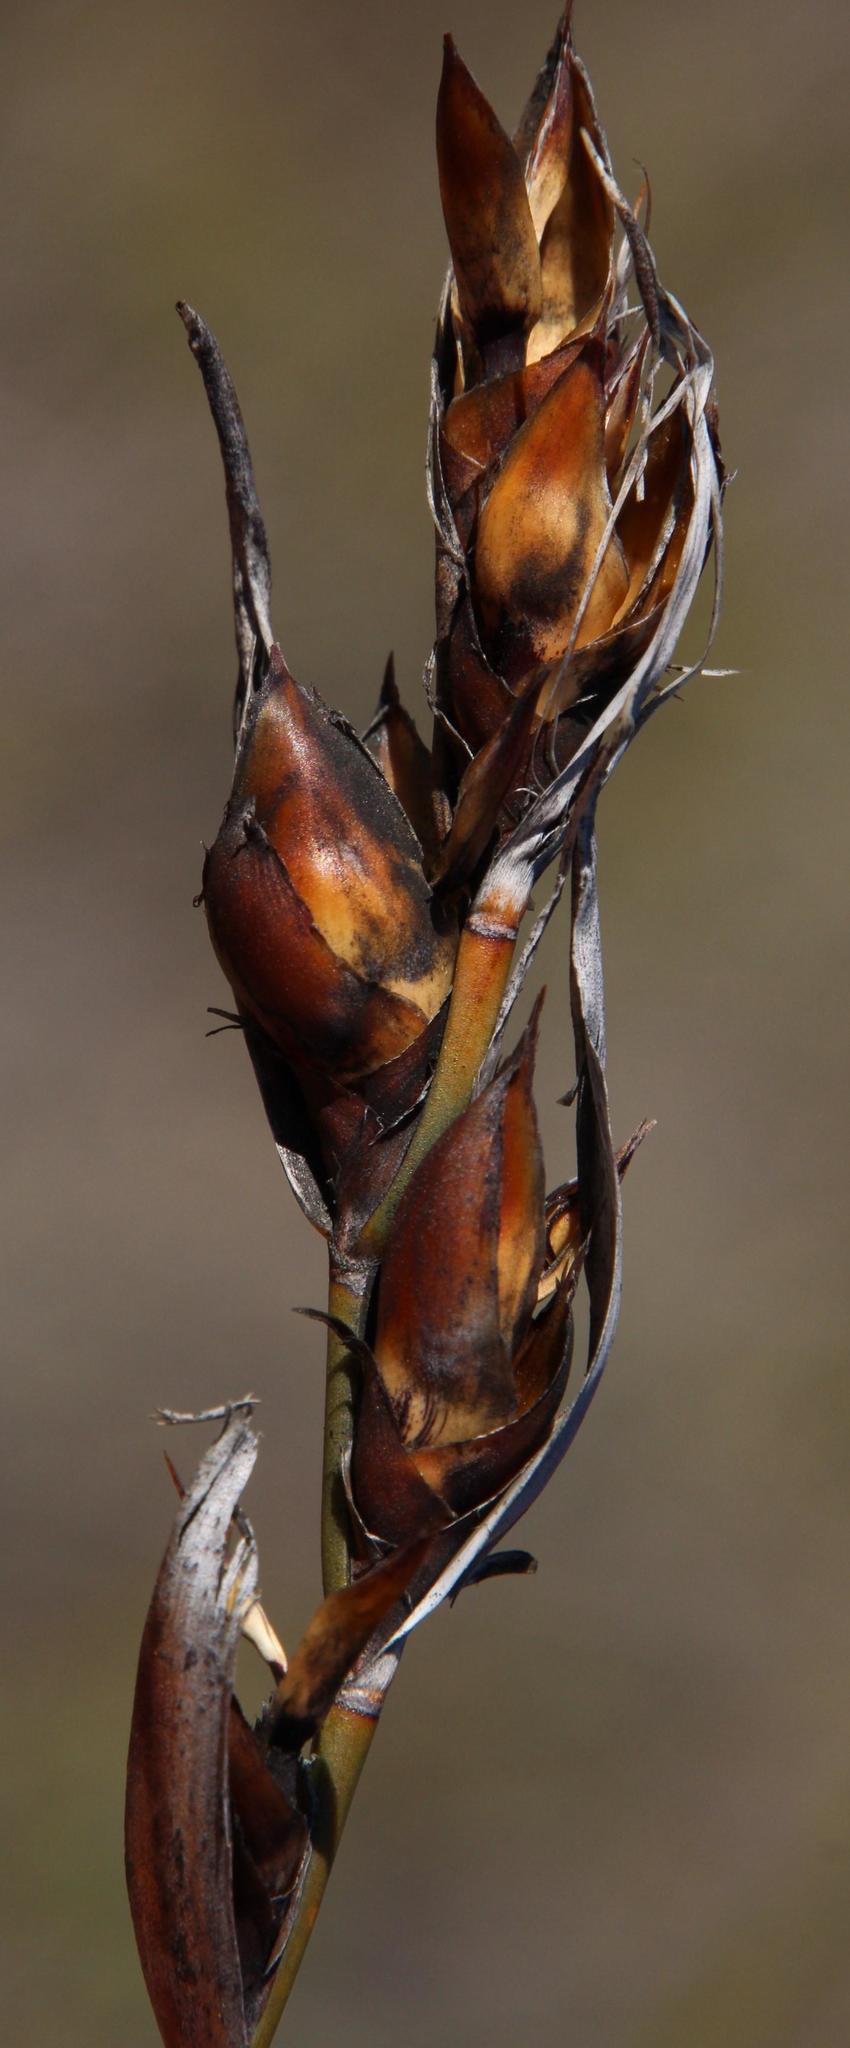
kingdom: Plantae
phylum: Tracheophyta
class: Liliopsida
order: Poales
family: Restionaceae
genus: Cannomois
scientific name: Cannomois parviflora
